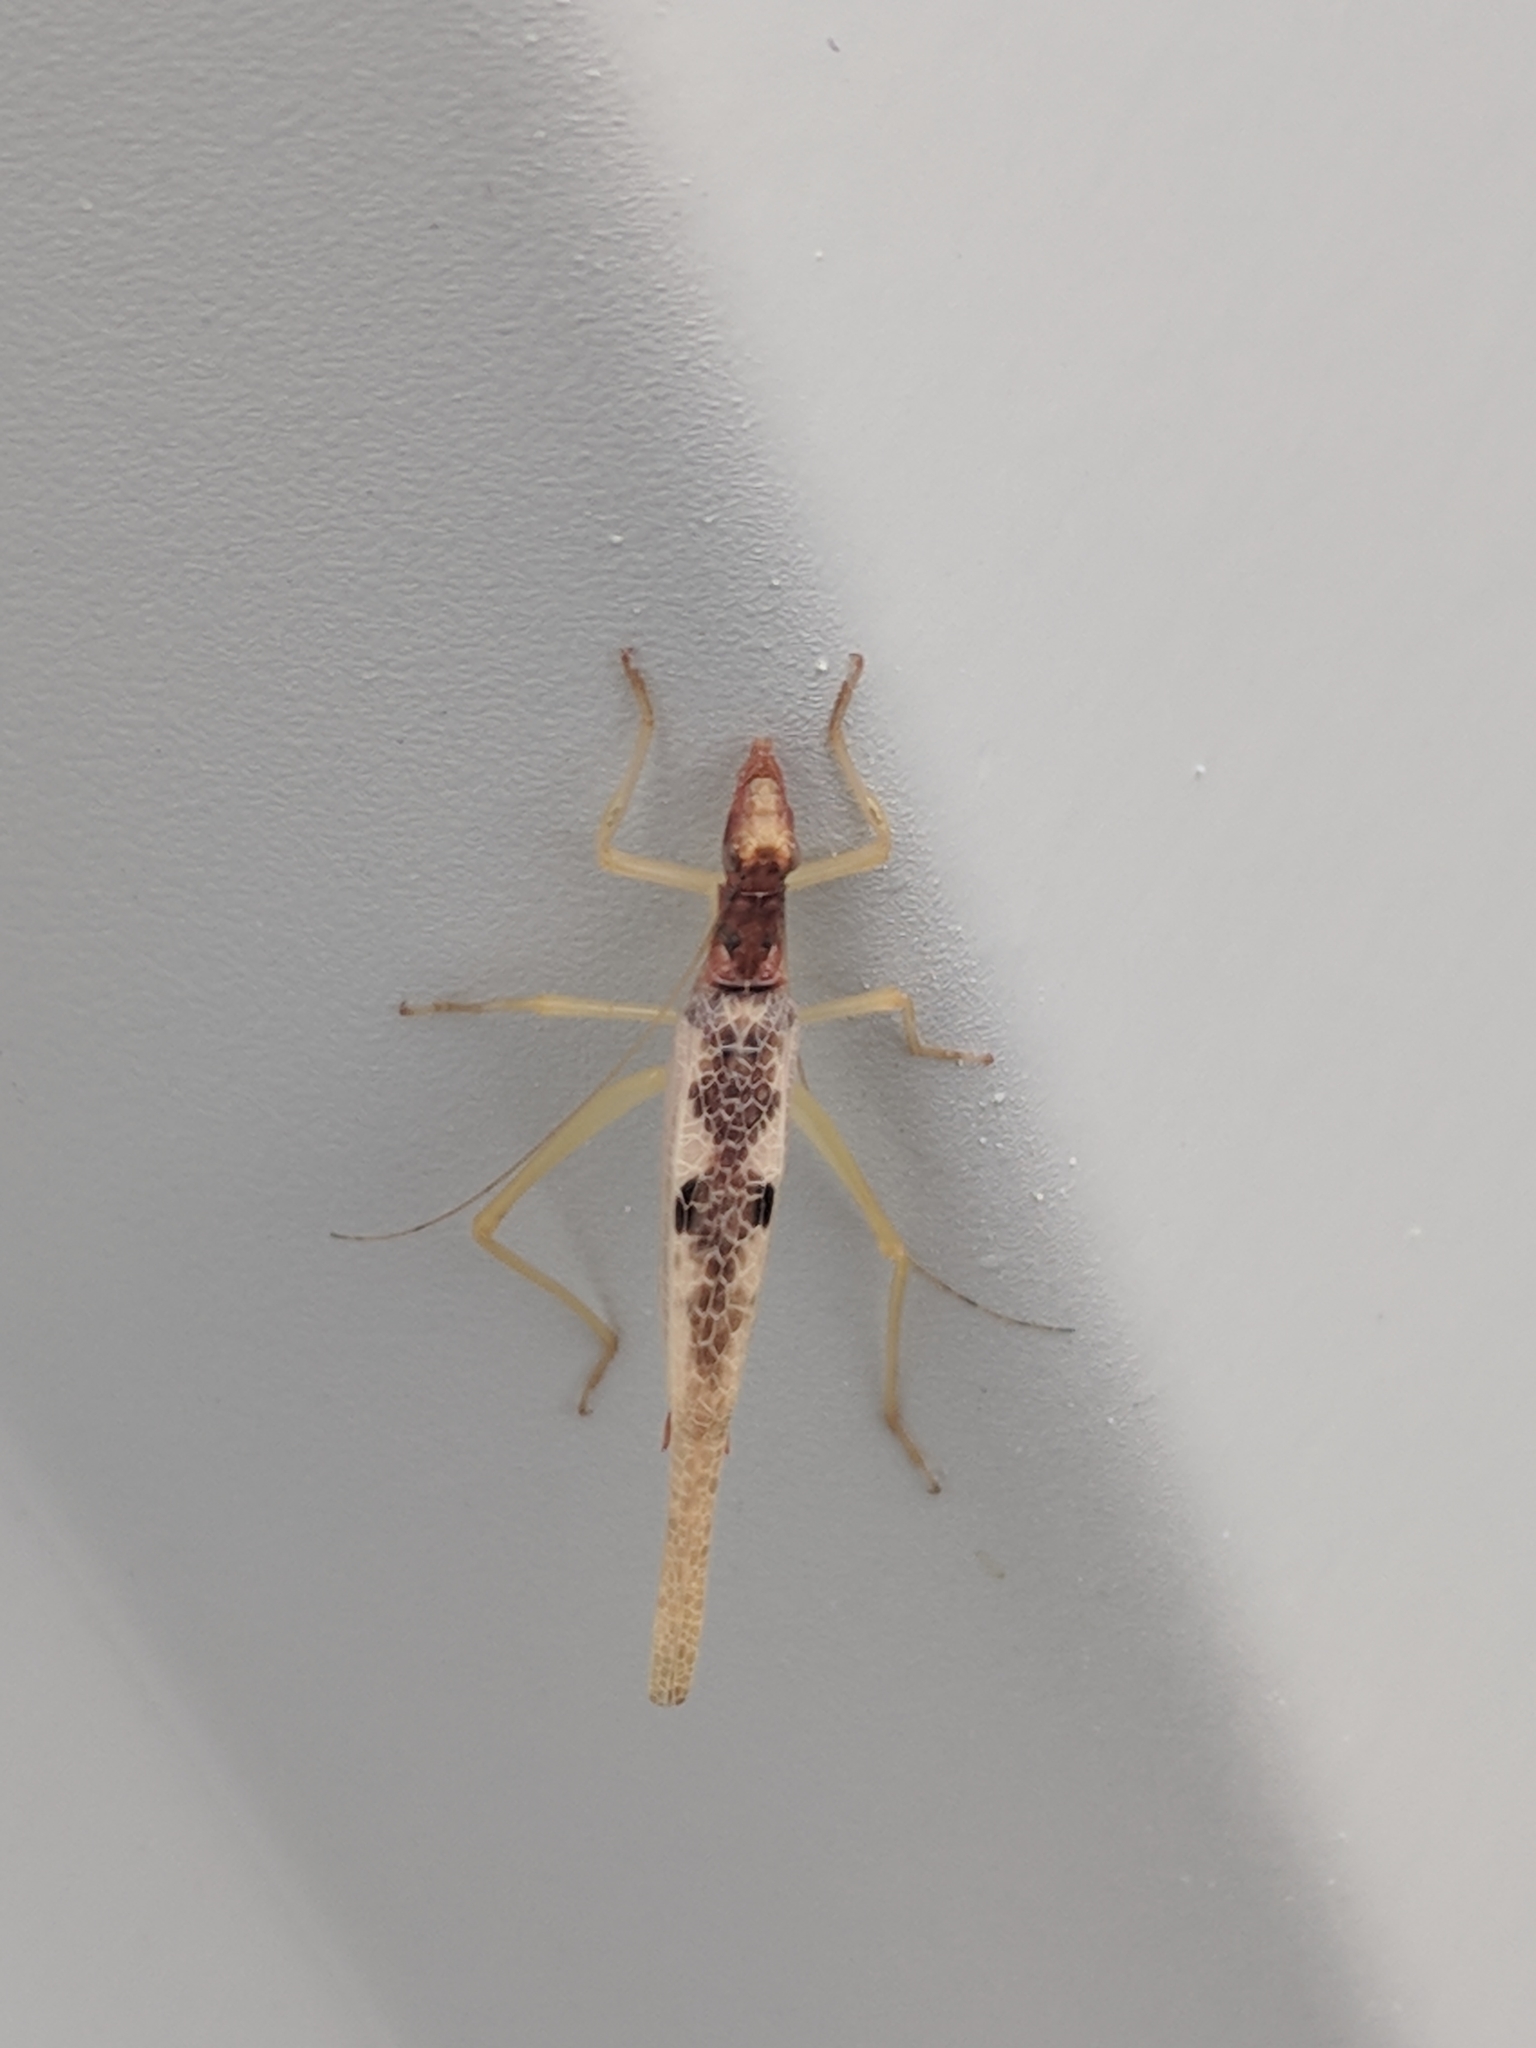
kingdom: Animalia
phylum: Arthropoda
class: Insecta
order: Orthoptera
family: Gryllidae
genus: Neoxabea
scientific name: Neoxabea bipunctata
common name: Two-spotted tree cricket
